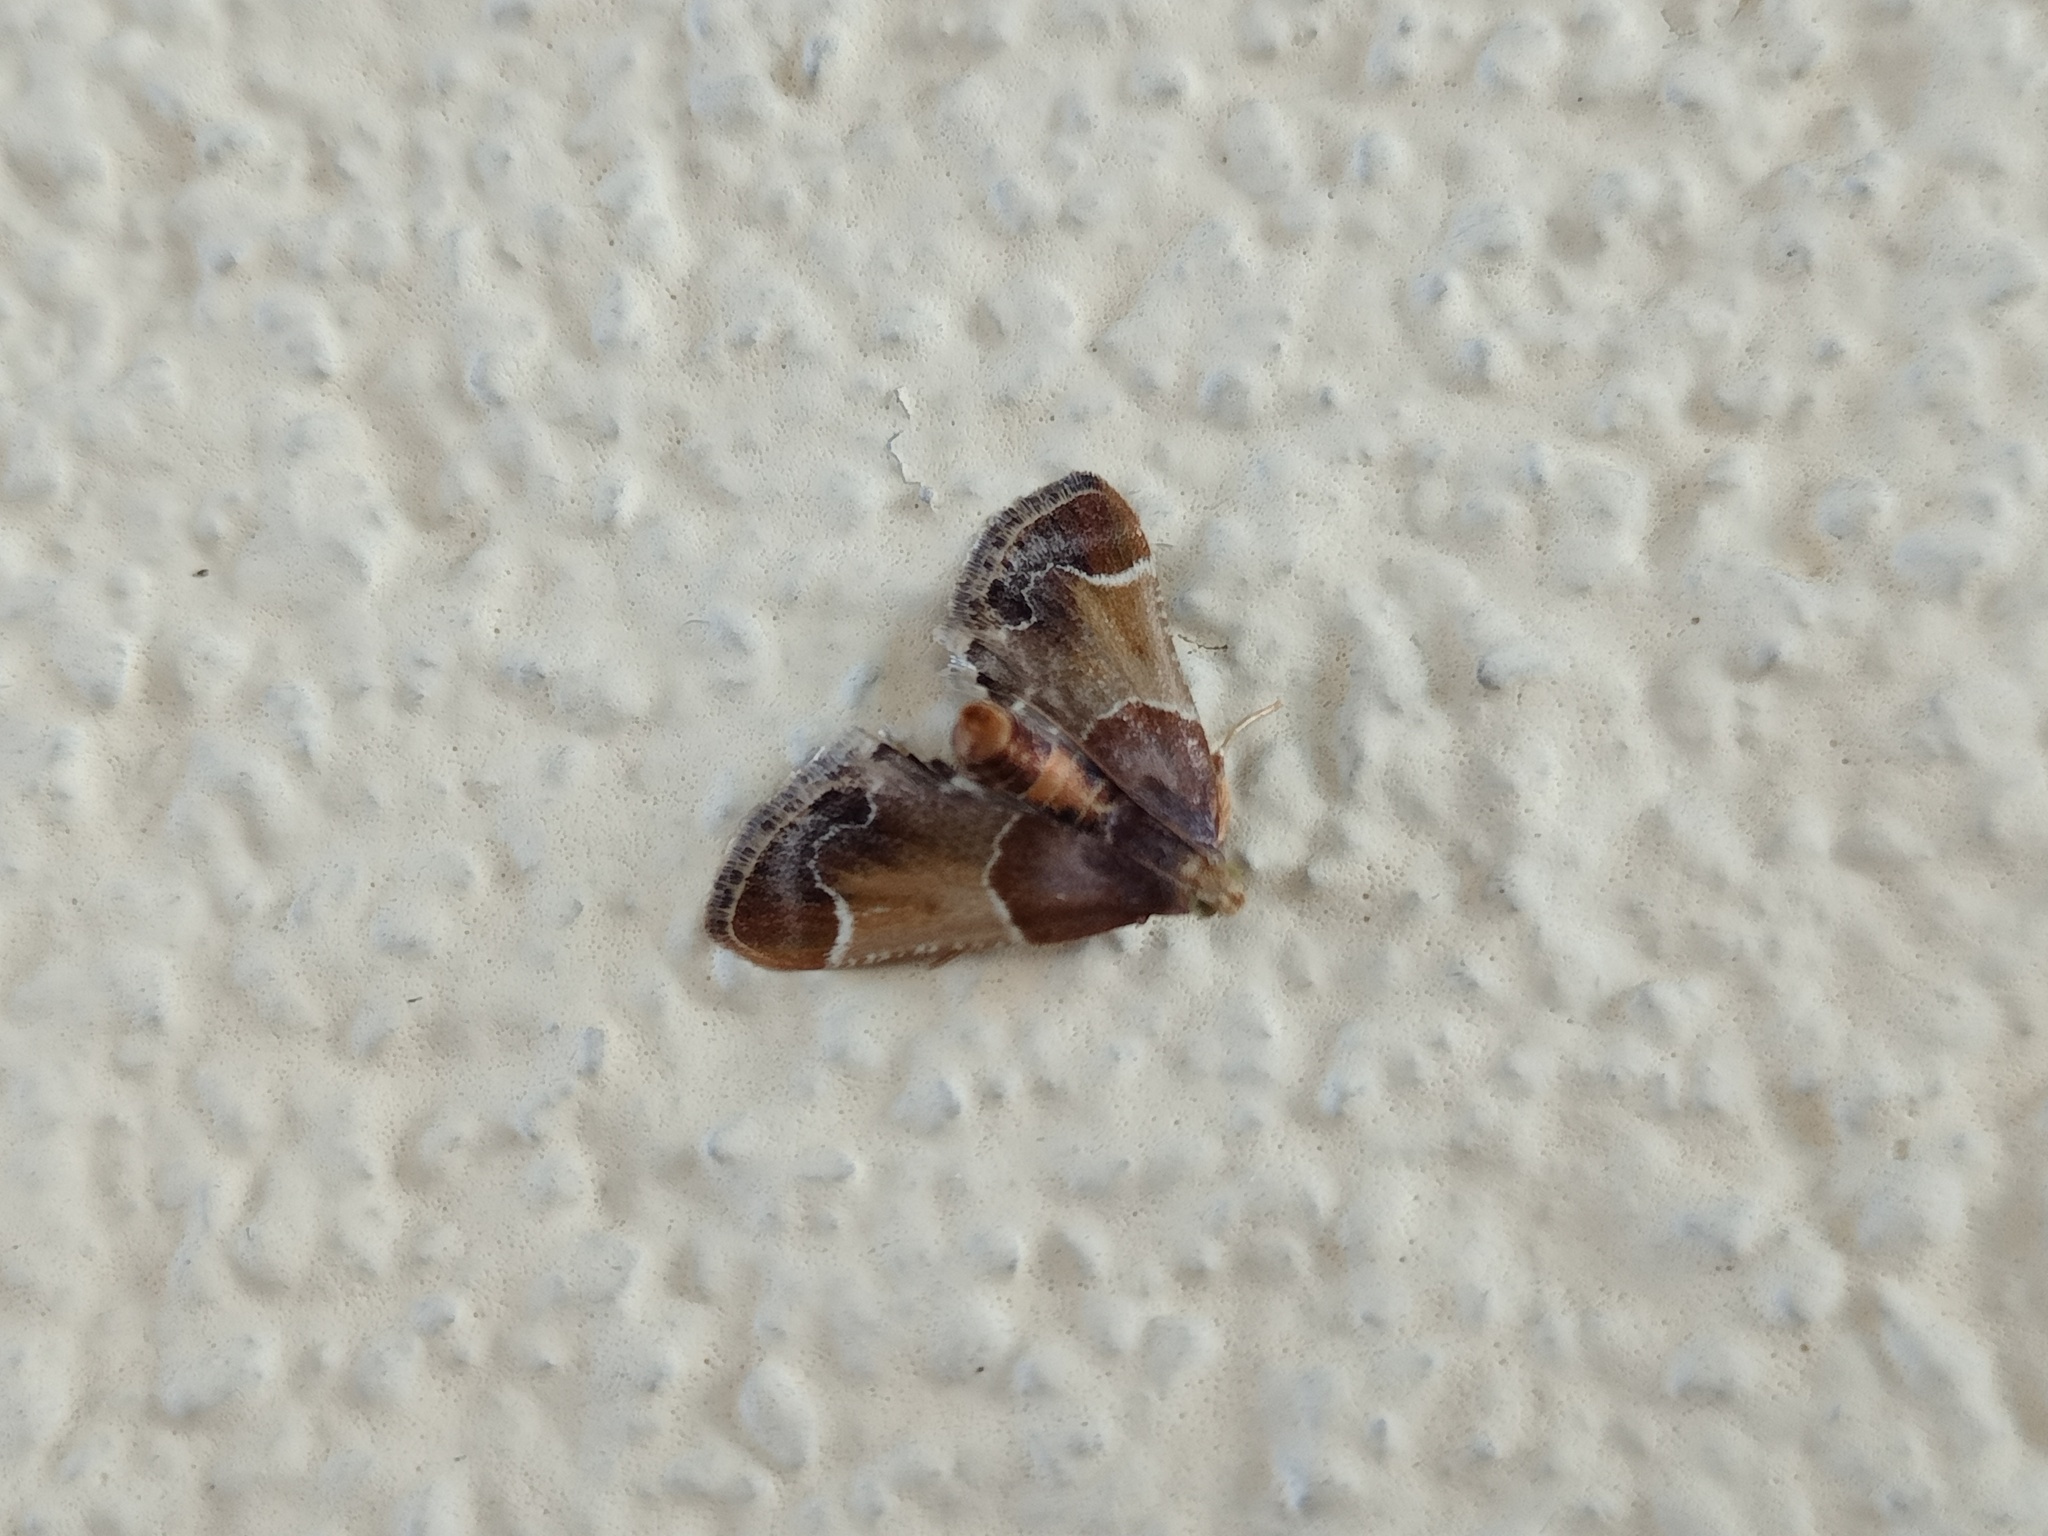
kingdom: Animalia
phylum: Arthropoda
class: Insecta
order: Lepidoptera
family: Pyralidae
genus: Pyralis
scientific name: Pyralis farinalis
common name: Meal moth
